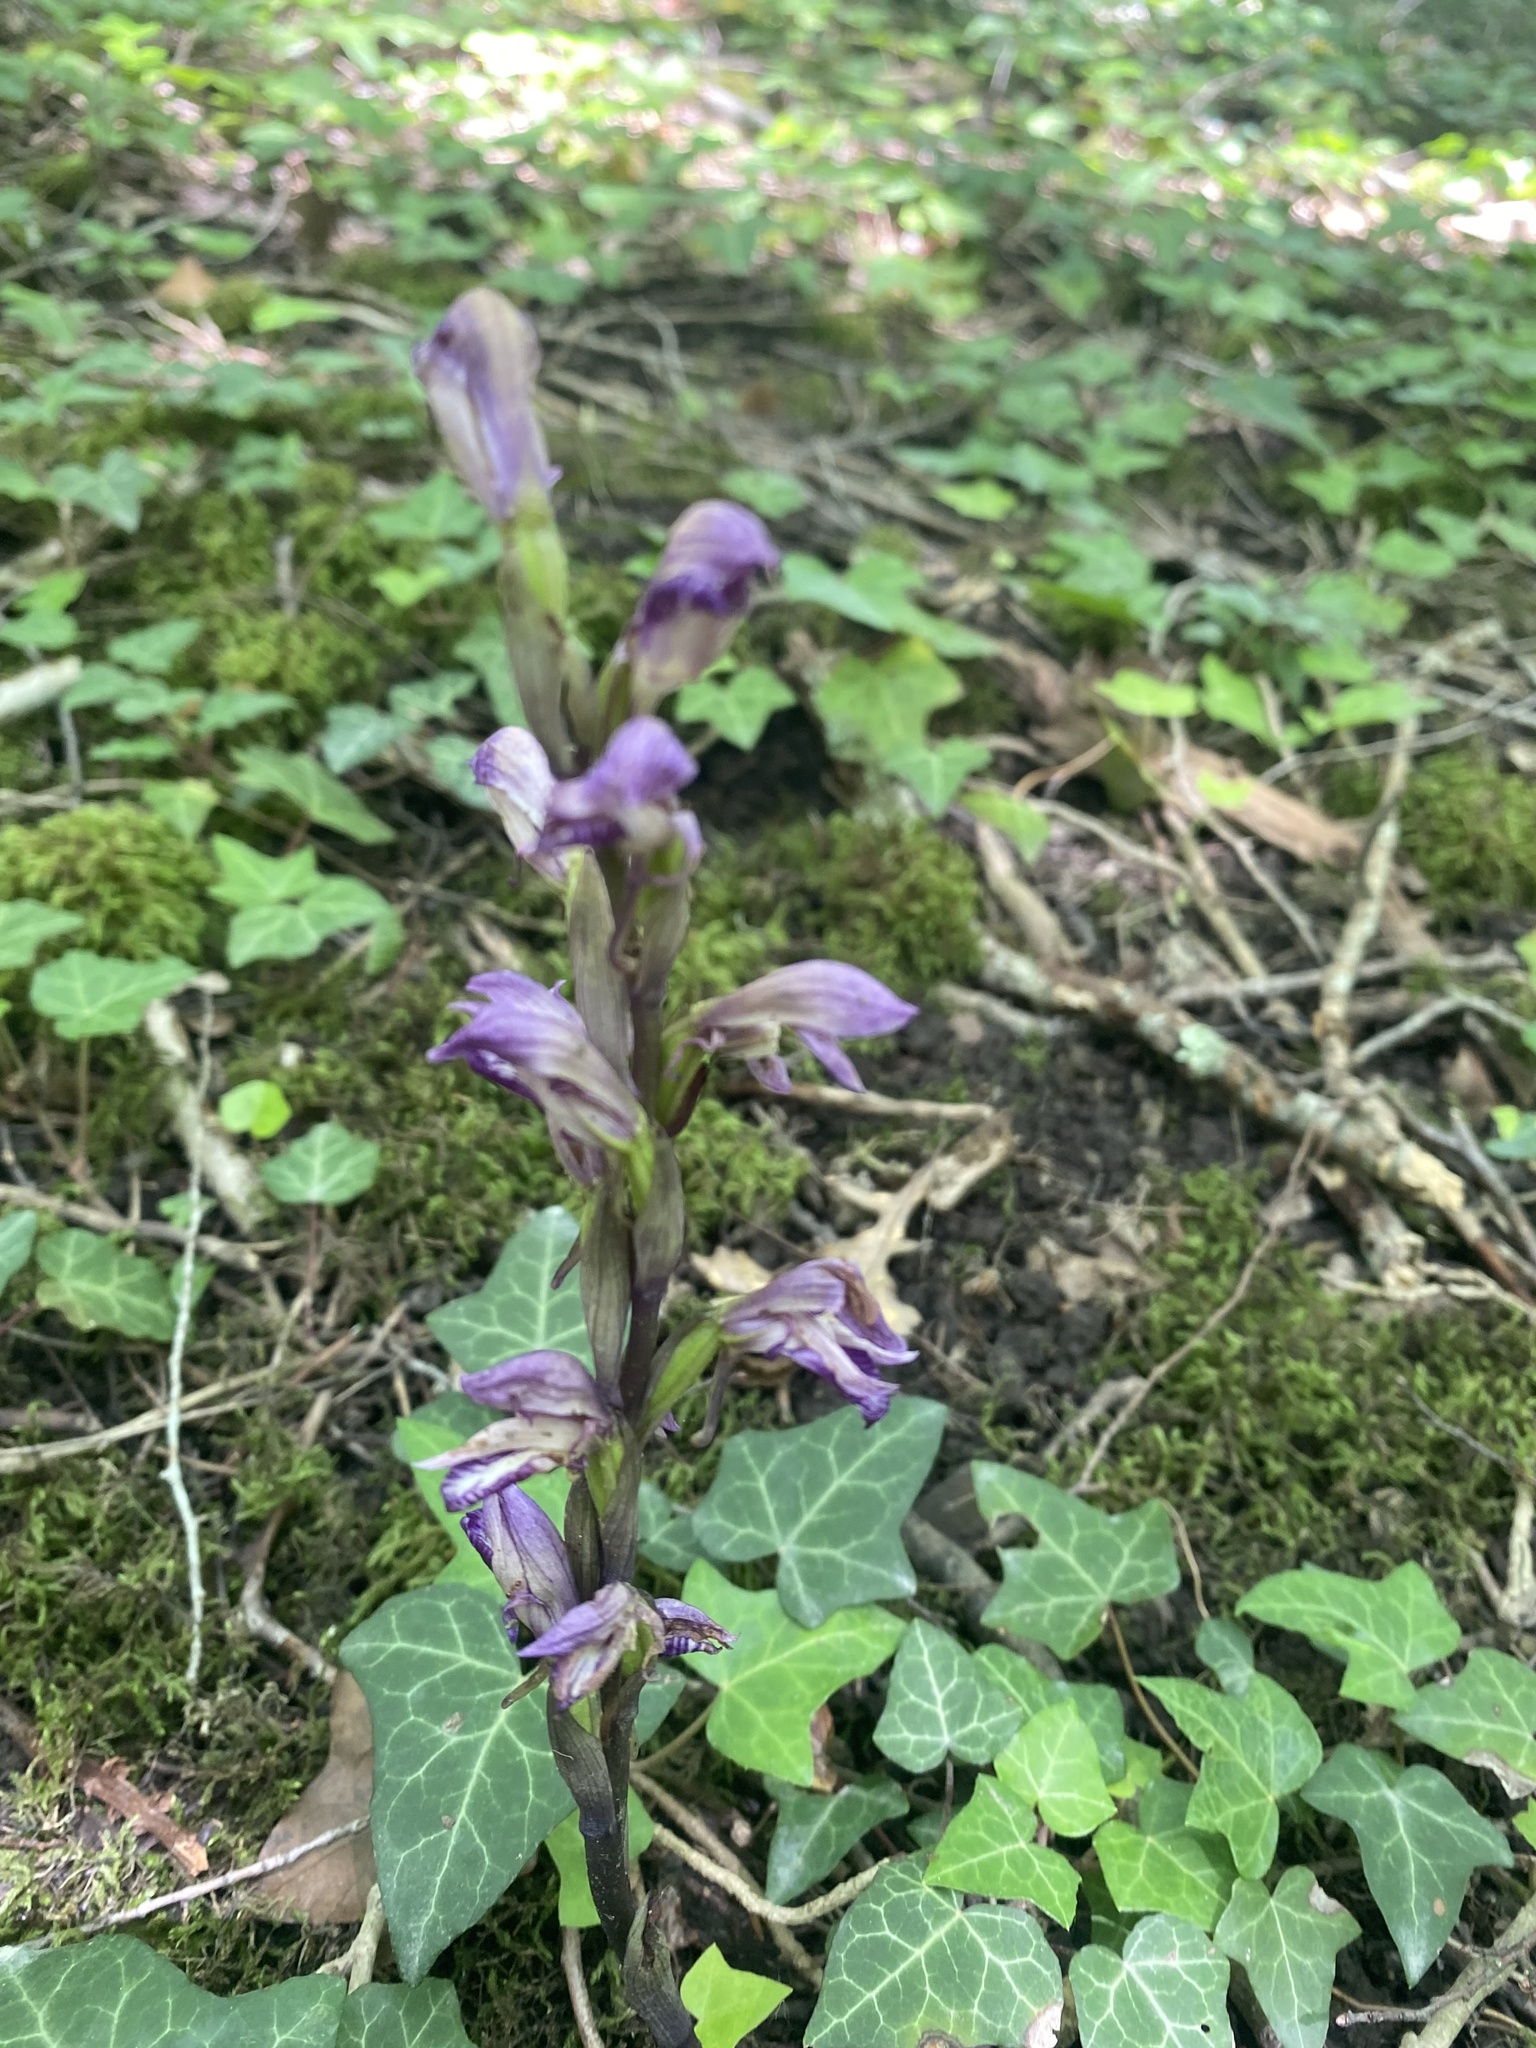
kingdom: Plantae
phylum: Tracheophyta
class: Liliopsida
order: Asparagales
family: Orchidaceae
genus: Limodorum
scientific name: Limodorum abortivum
